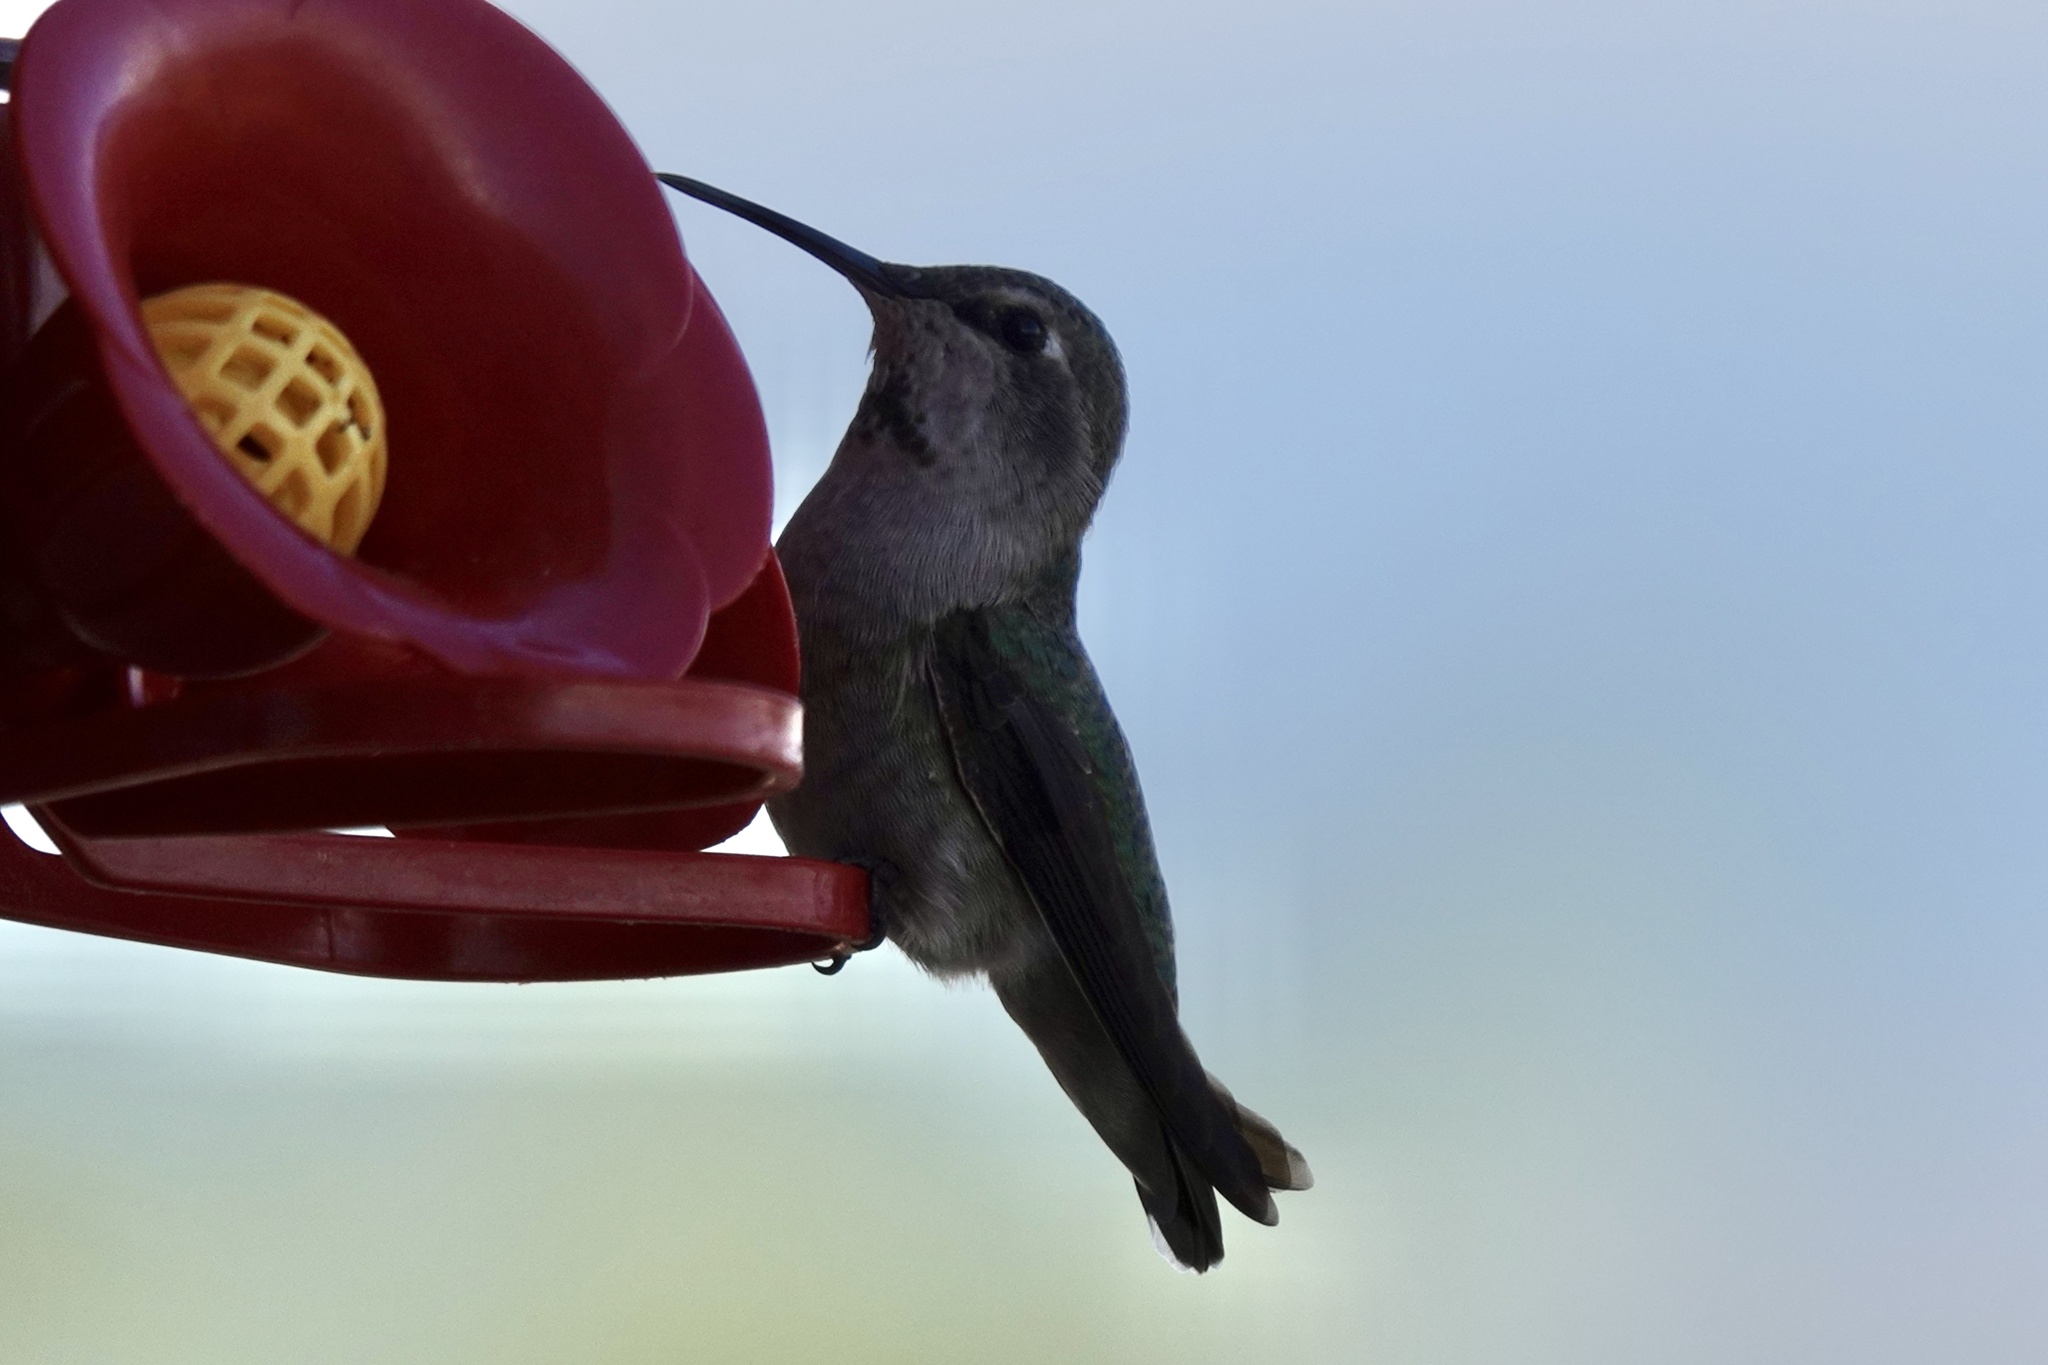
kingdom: Animalia
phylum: Chordata
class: Aves
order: Apodiformes
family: Trochilidae
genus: Calypte
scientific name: Calypte anna
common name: Anna's hummingbird
